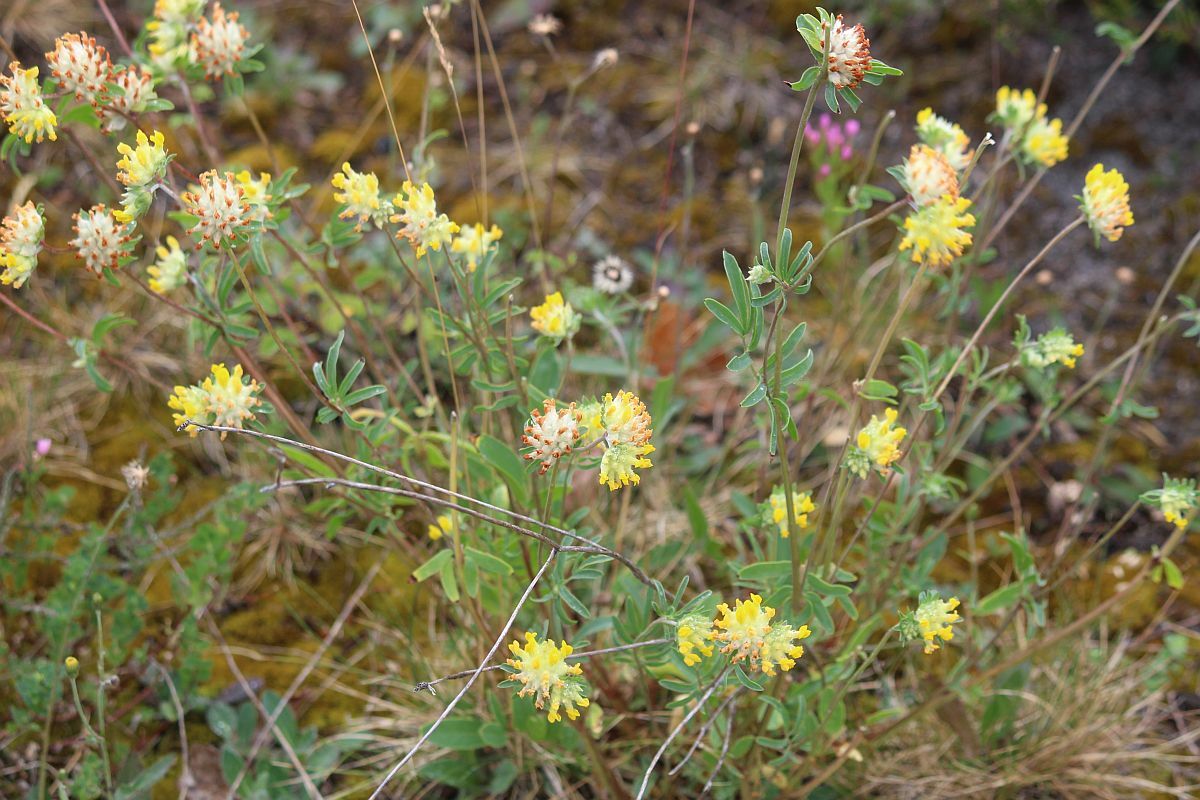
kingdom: Plantae
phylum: Tracheophyta
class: Magnoliopsida
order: Fabales
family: Fabaceae
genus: Anthyllis
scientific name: Anthyllis vulneraria
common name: Kidney vetch
